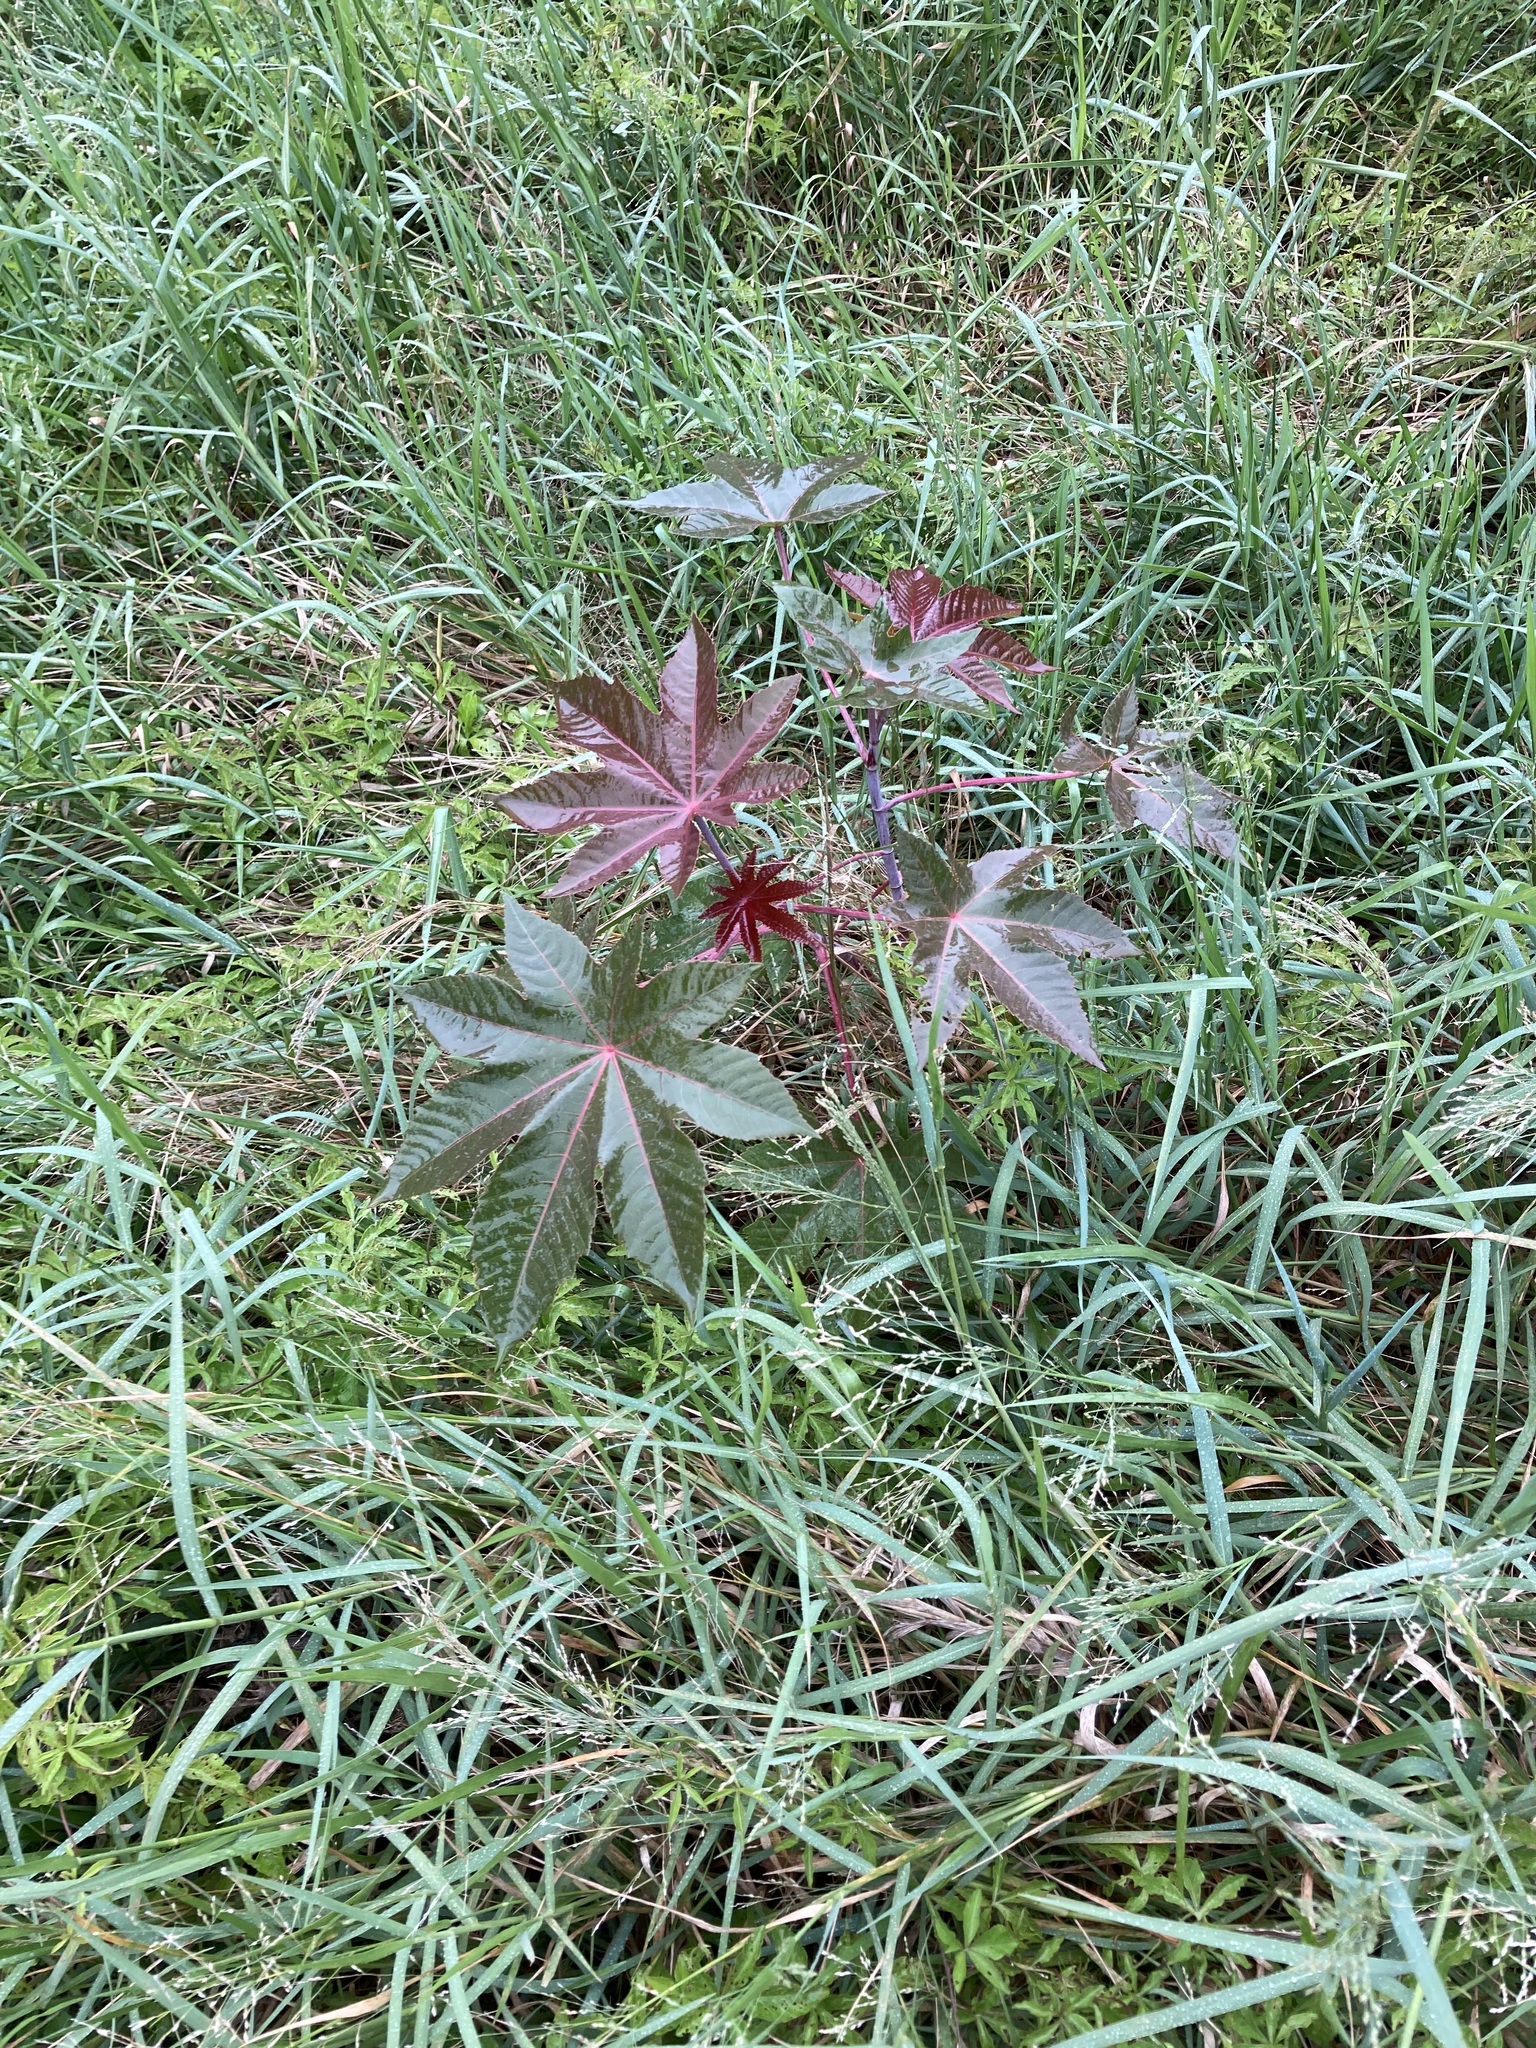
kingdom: Plantae
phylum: Tracheophyta
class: Magnoliopsida
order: Malpighiales
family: Euphorbiaceae
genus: Ricinus
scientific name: Ricinus communis
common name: Castor-oil-plant
